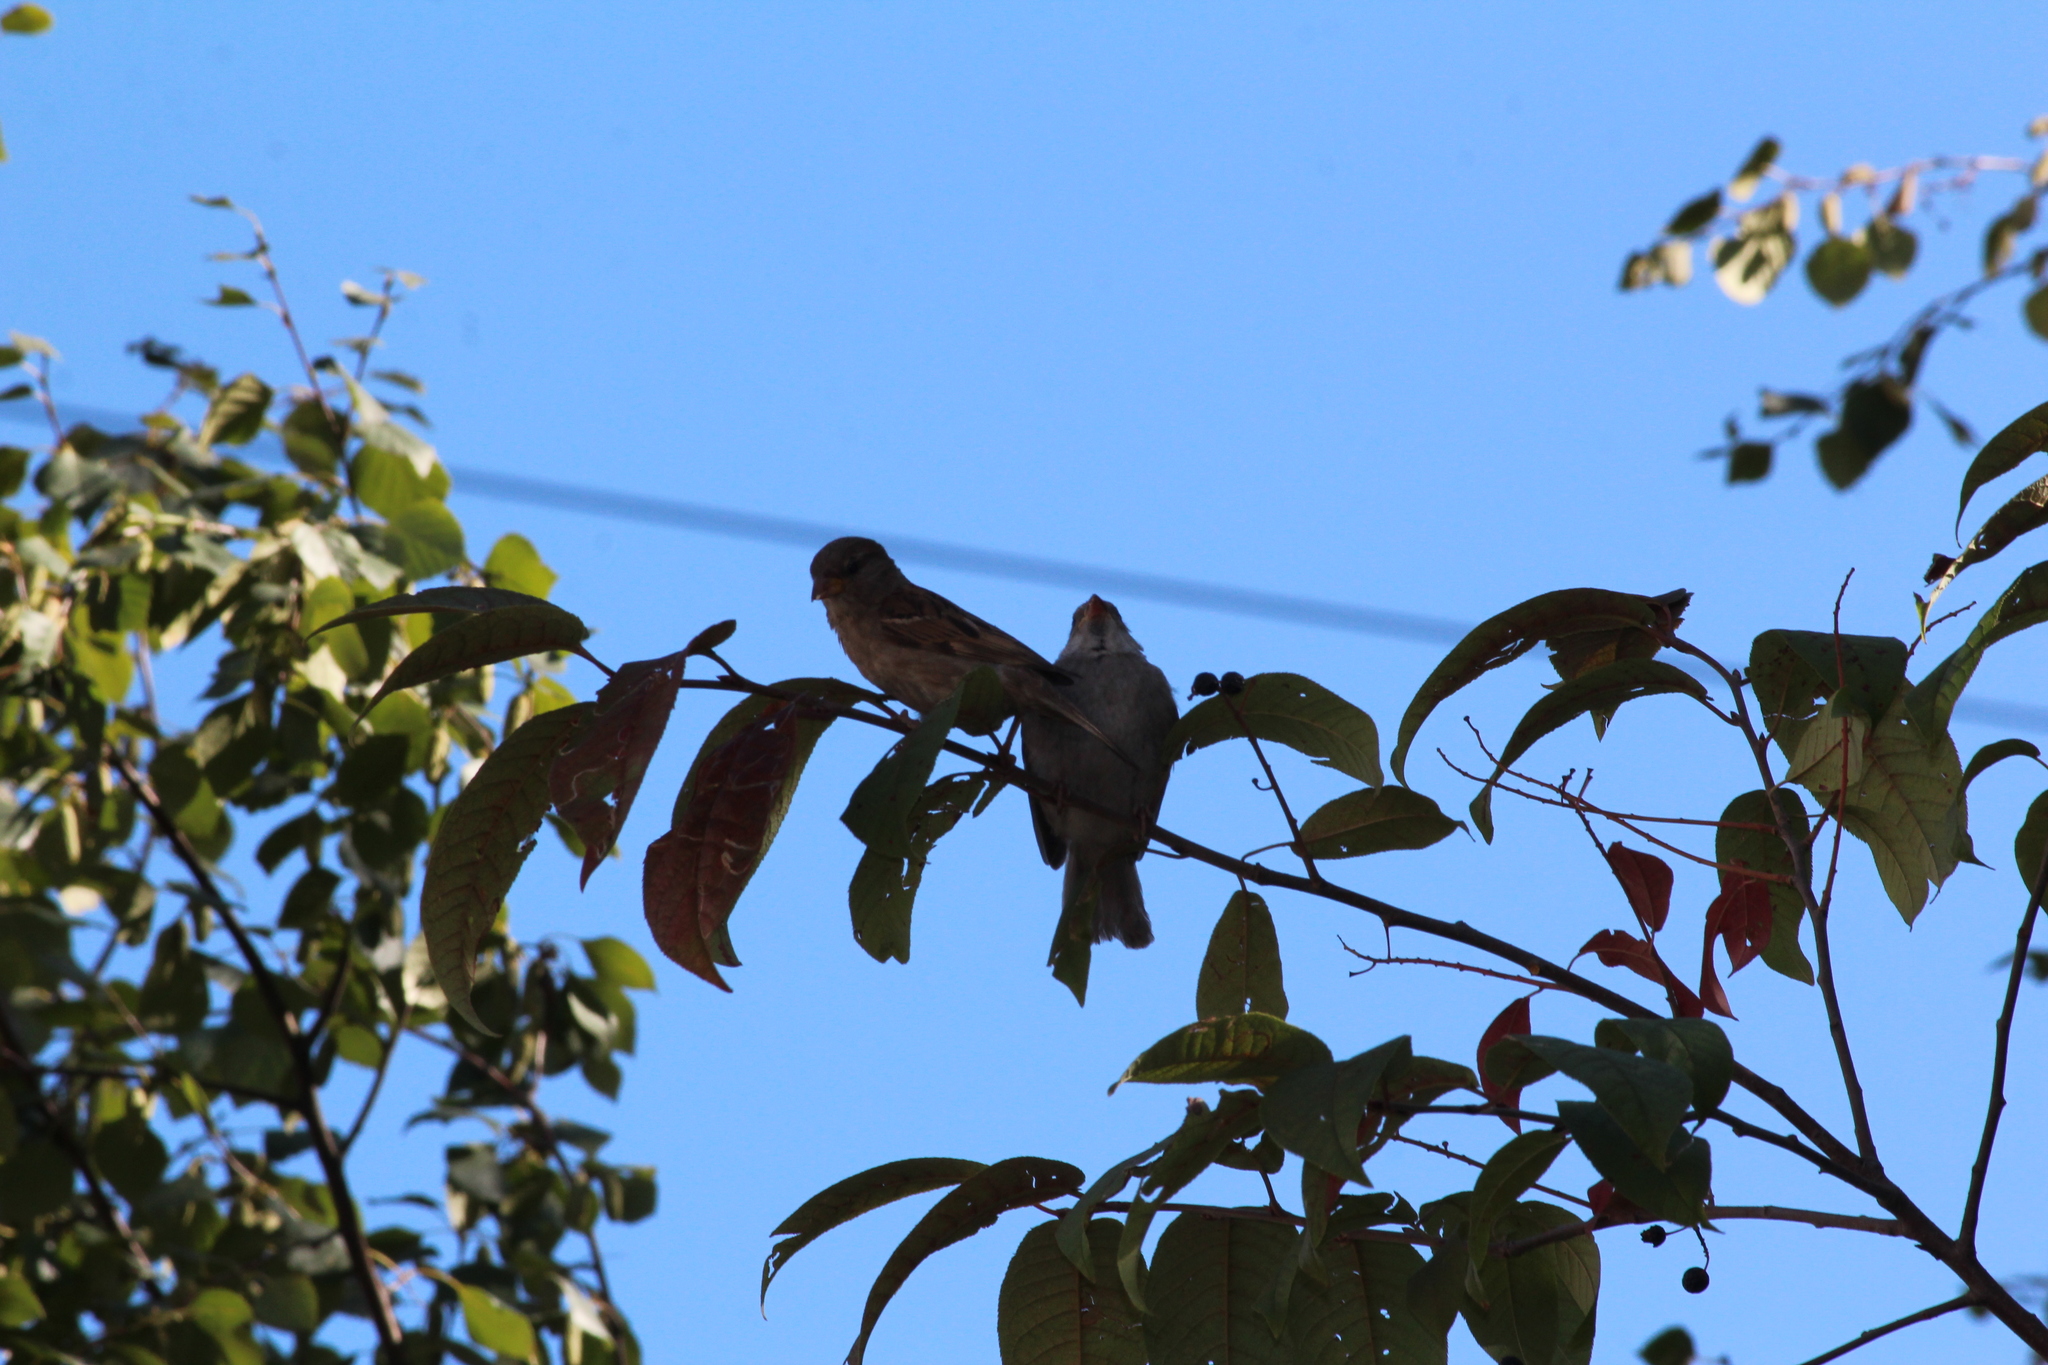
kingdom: Animalia
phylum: Chordata
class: Aves
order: Passeriformes
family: Passeridae
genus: Passer
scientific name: Passer domesticus
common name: House sparrow
